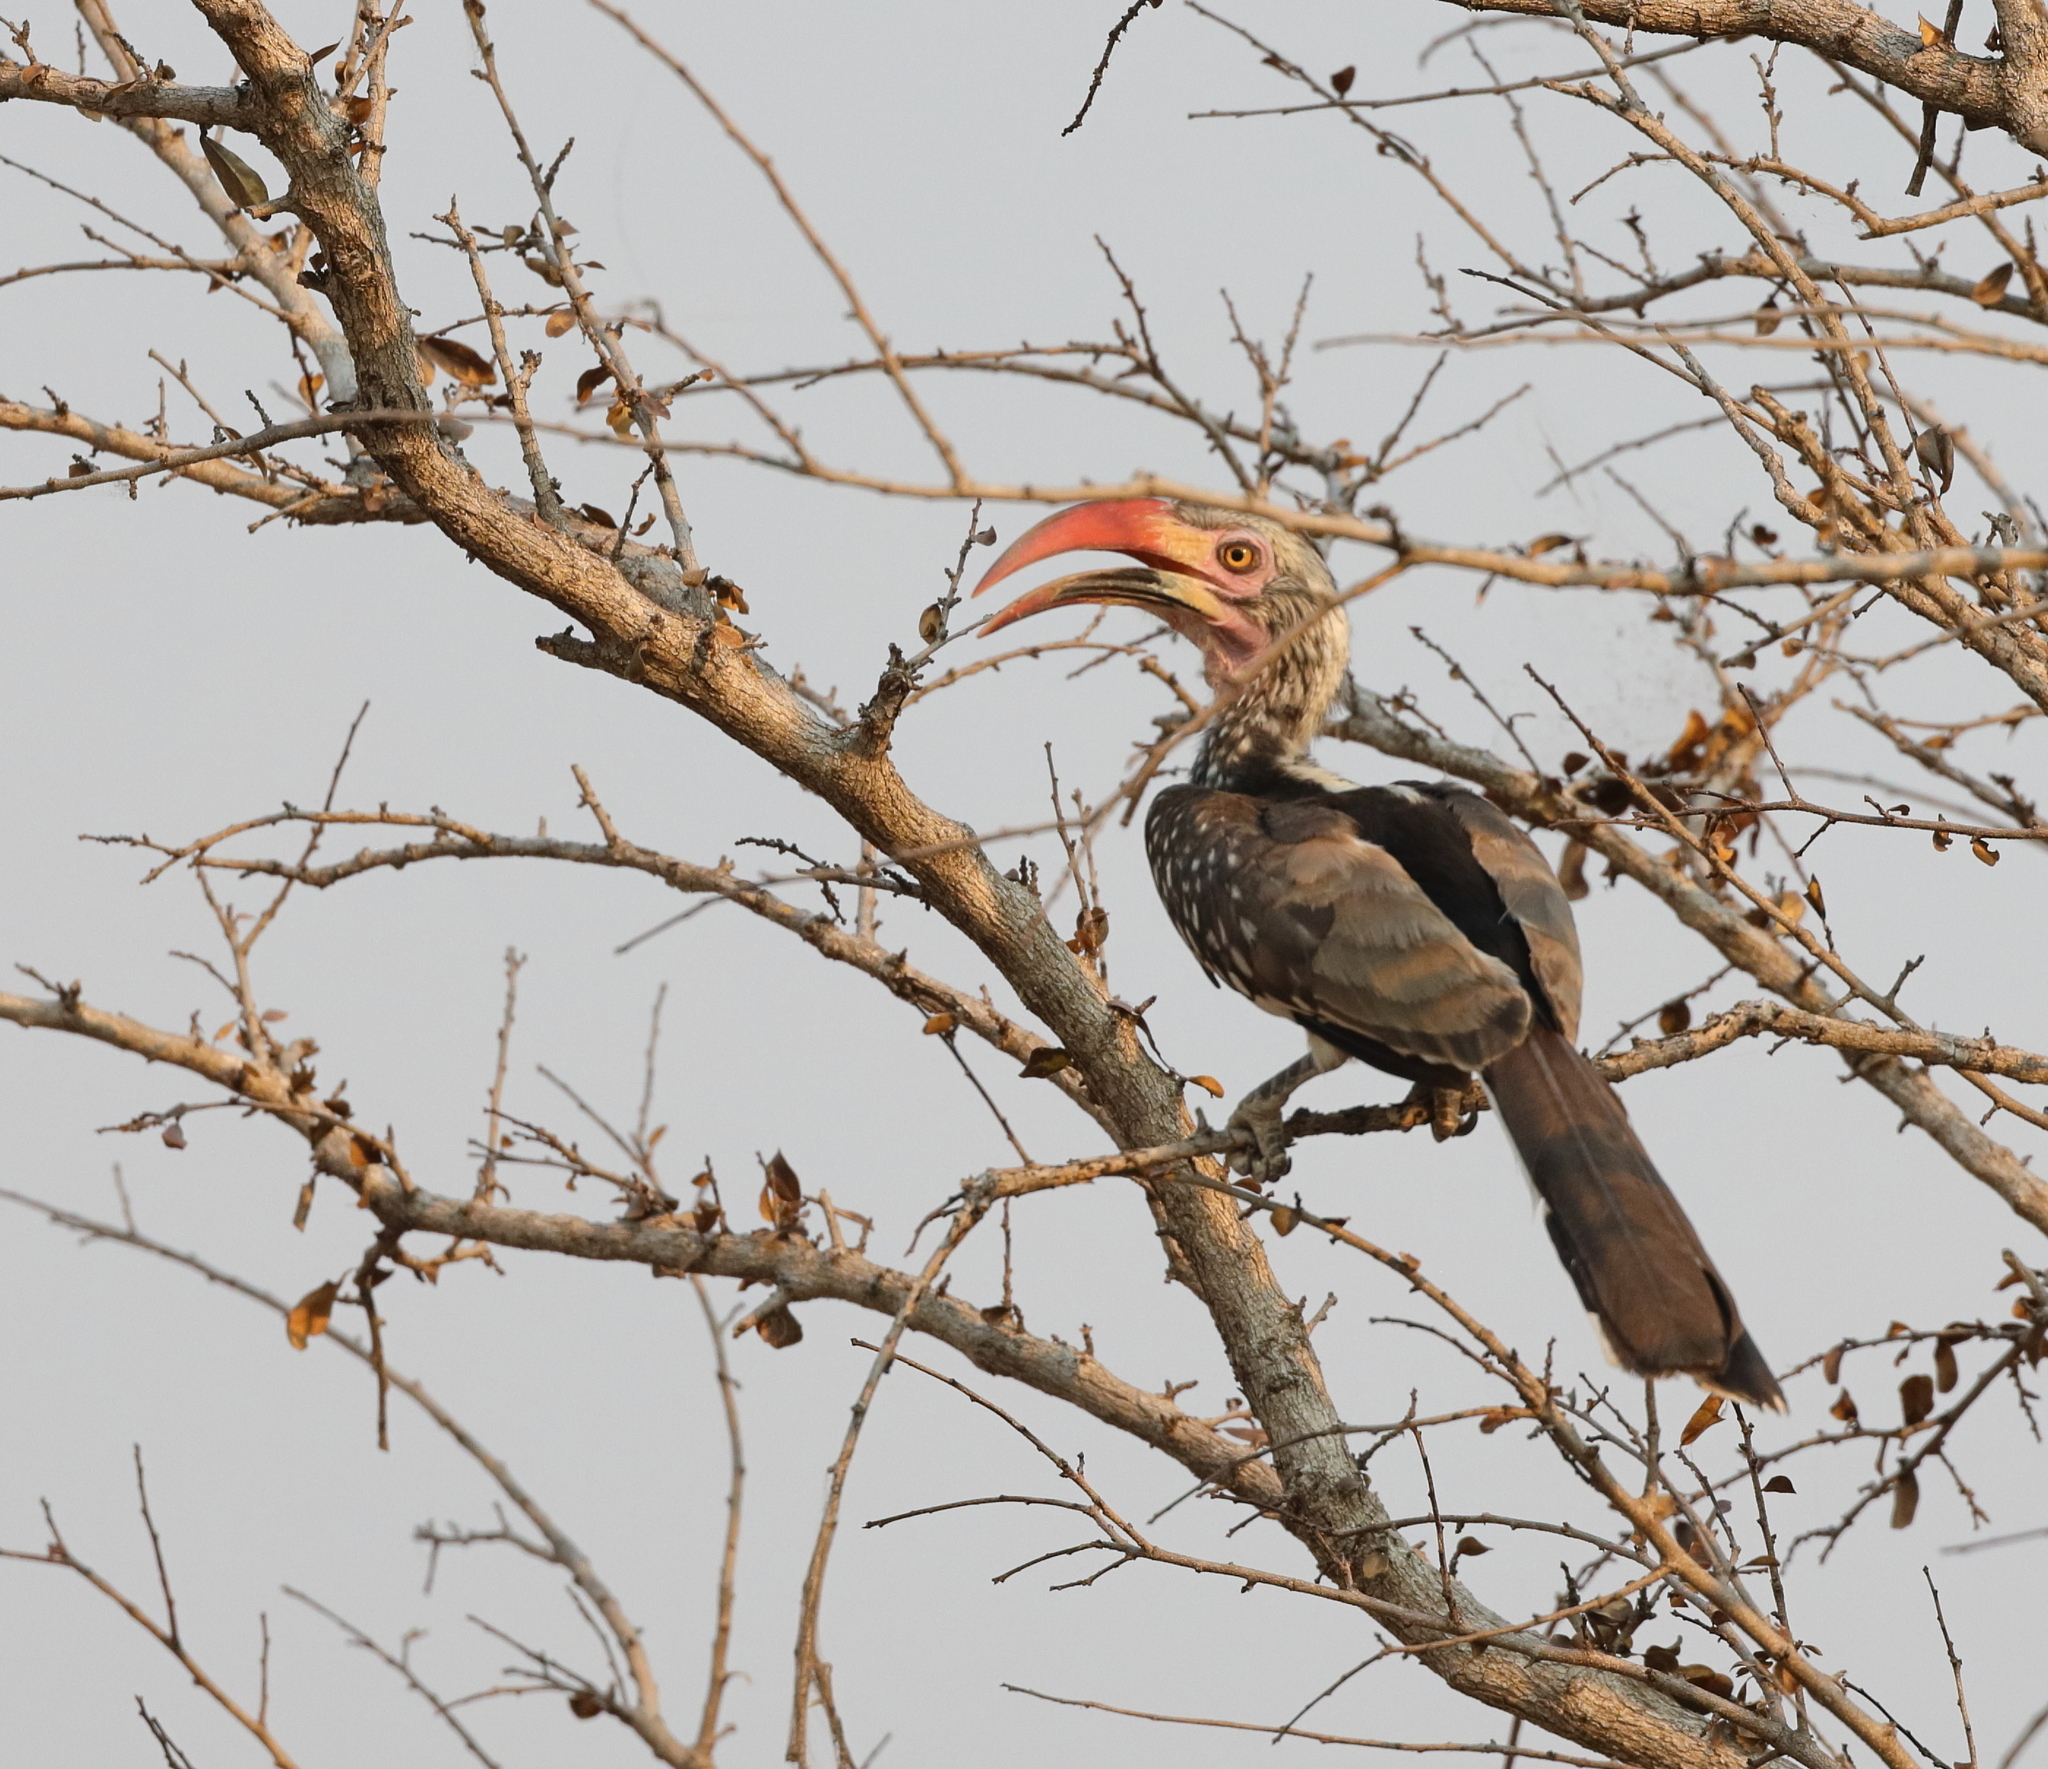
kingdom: Animalia
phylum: Chordata
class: Aves
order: Bucerotiformes
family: Bucerotidae
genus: Tockus
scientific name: Tockus rufirostris
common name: Southern red-billed hornbill
